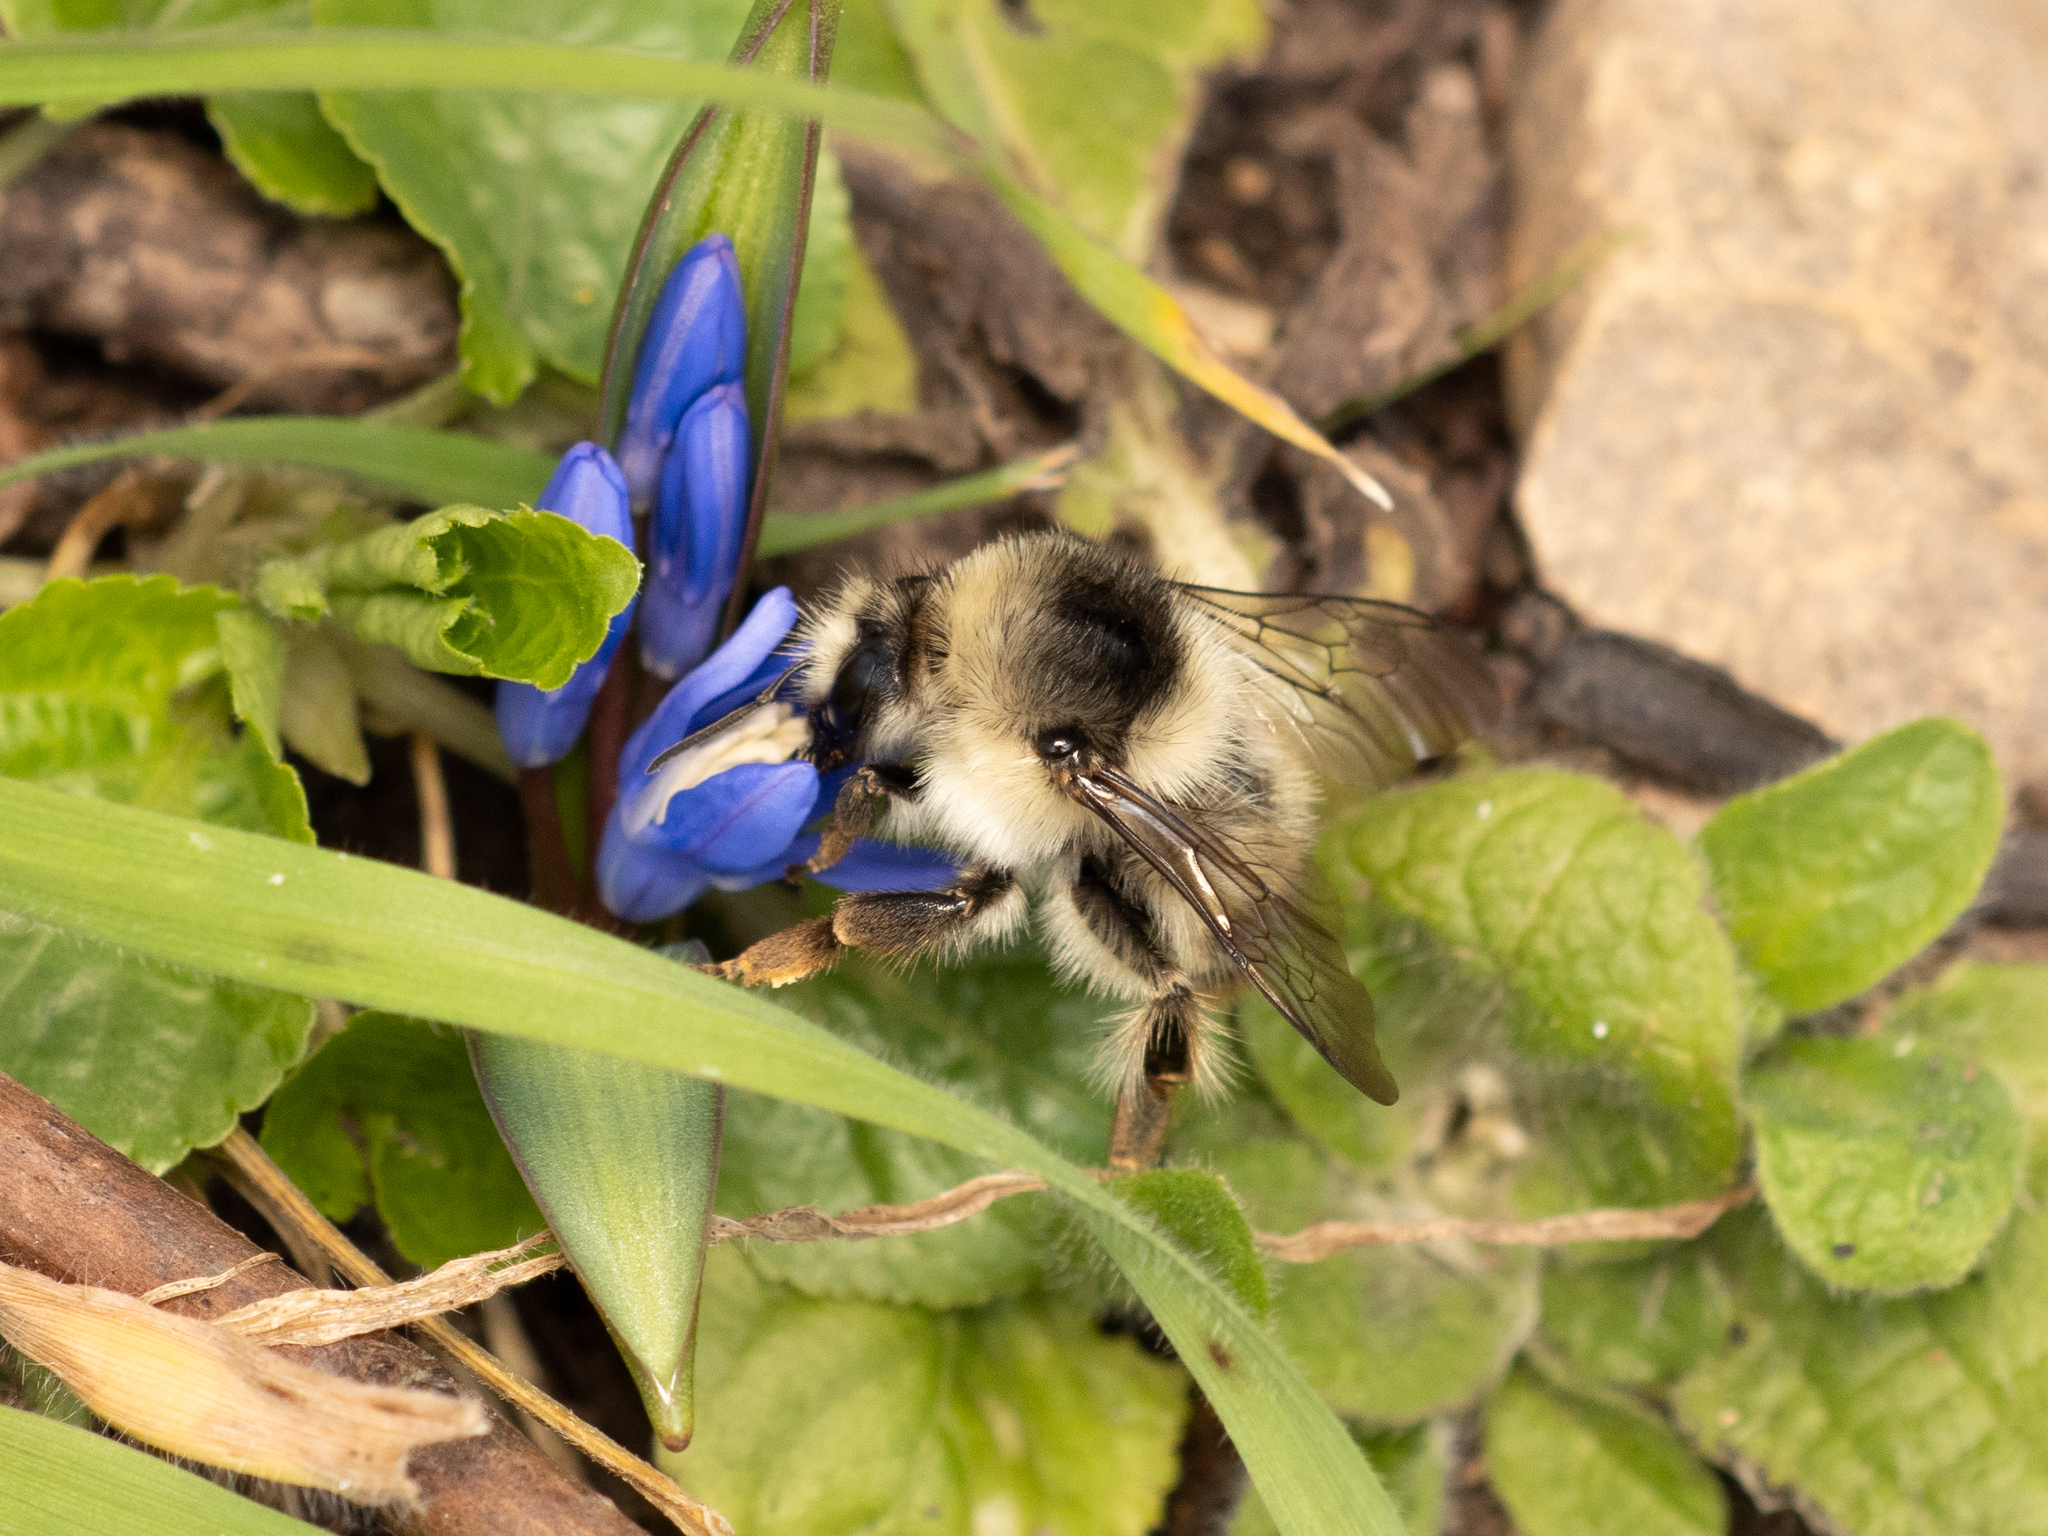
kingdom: Animalia
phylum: Arthropoda
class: Insecta
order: Hymenoptera
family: Apidae
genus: Bombus
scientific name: Bombus sylvarum
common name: Shrill carder bee
